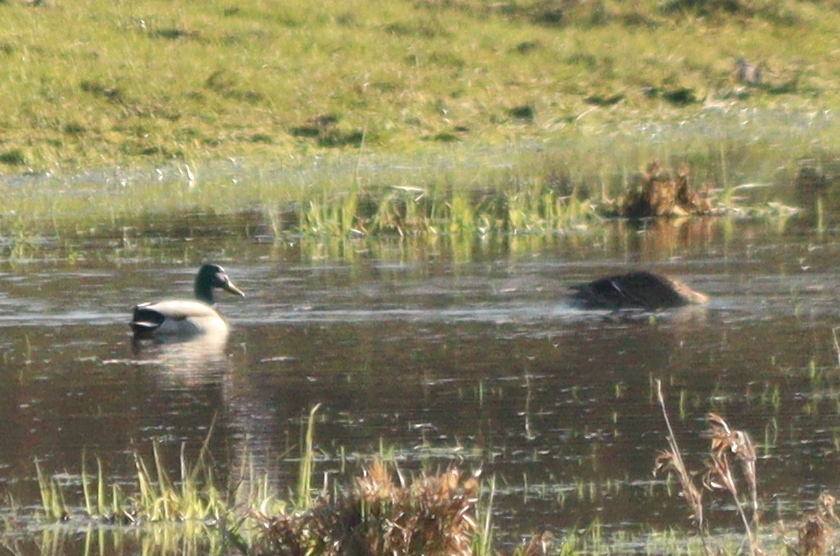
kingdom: Animalia
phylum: Chordata
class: Aves
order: Anseriformes
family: Anatidae
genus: Anas
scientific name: Anas platyrhynchos
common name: Mallard
